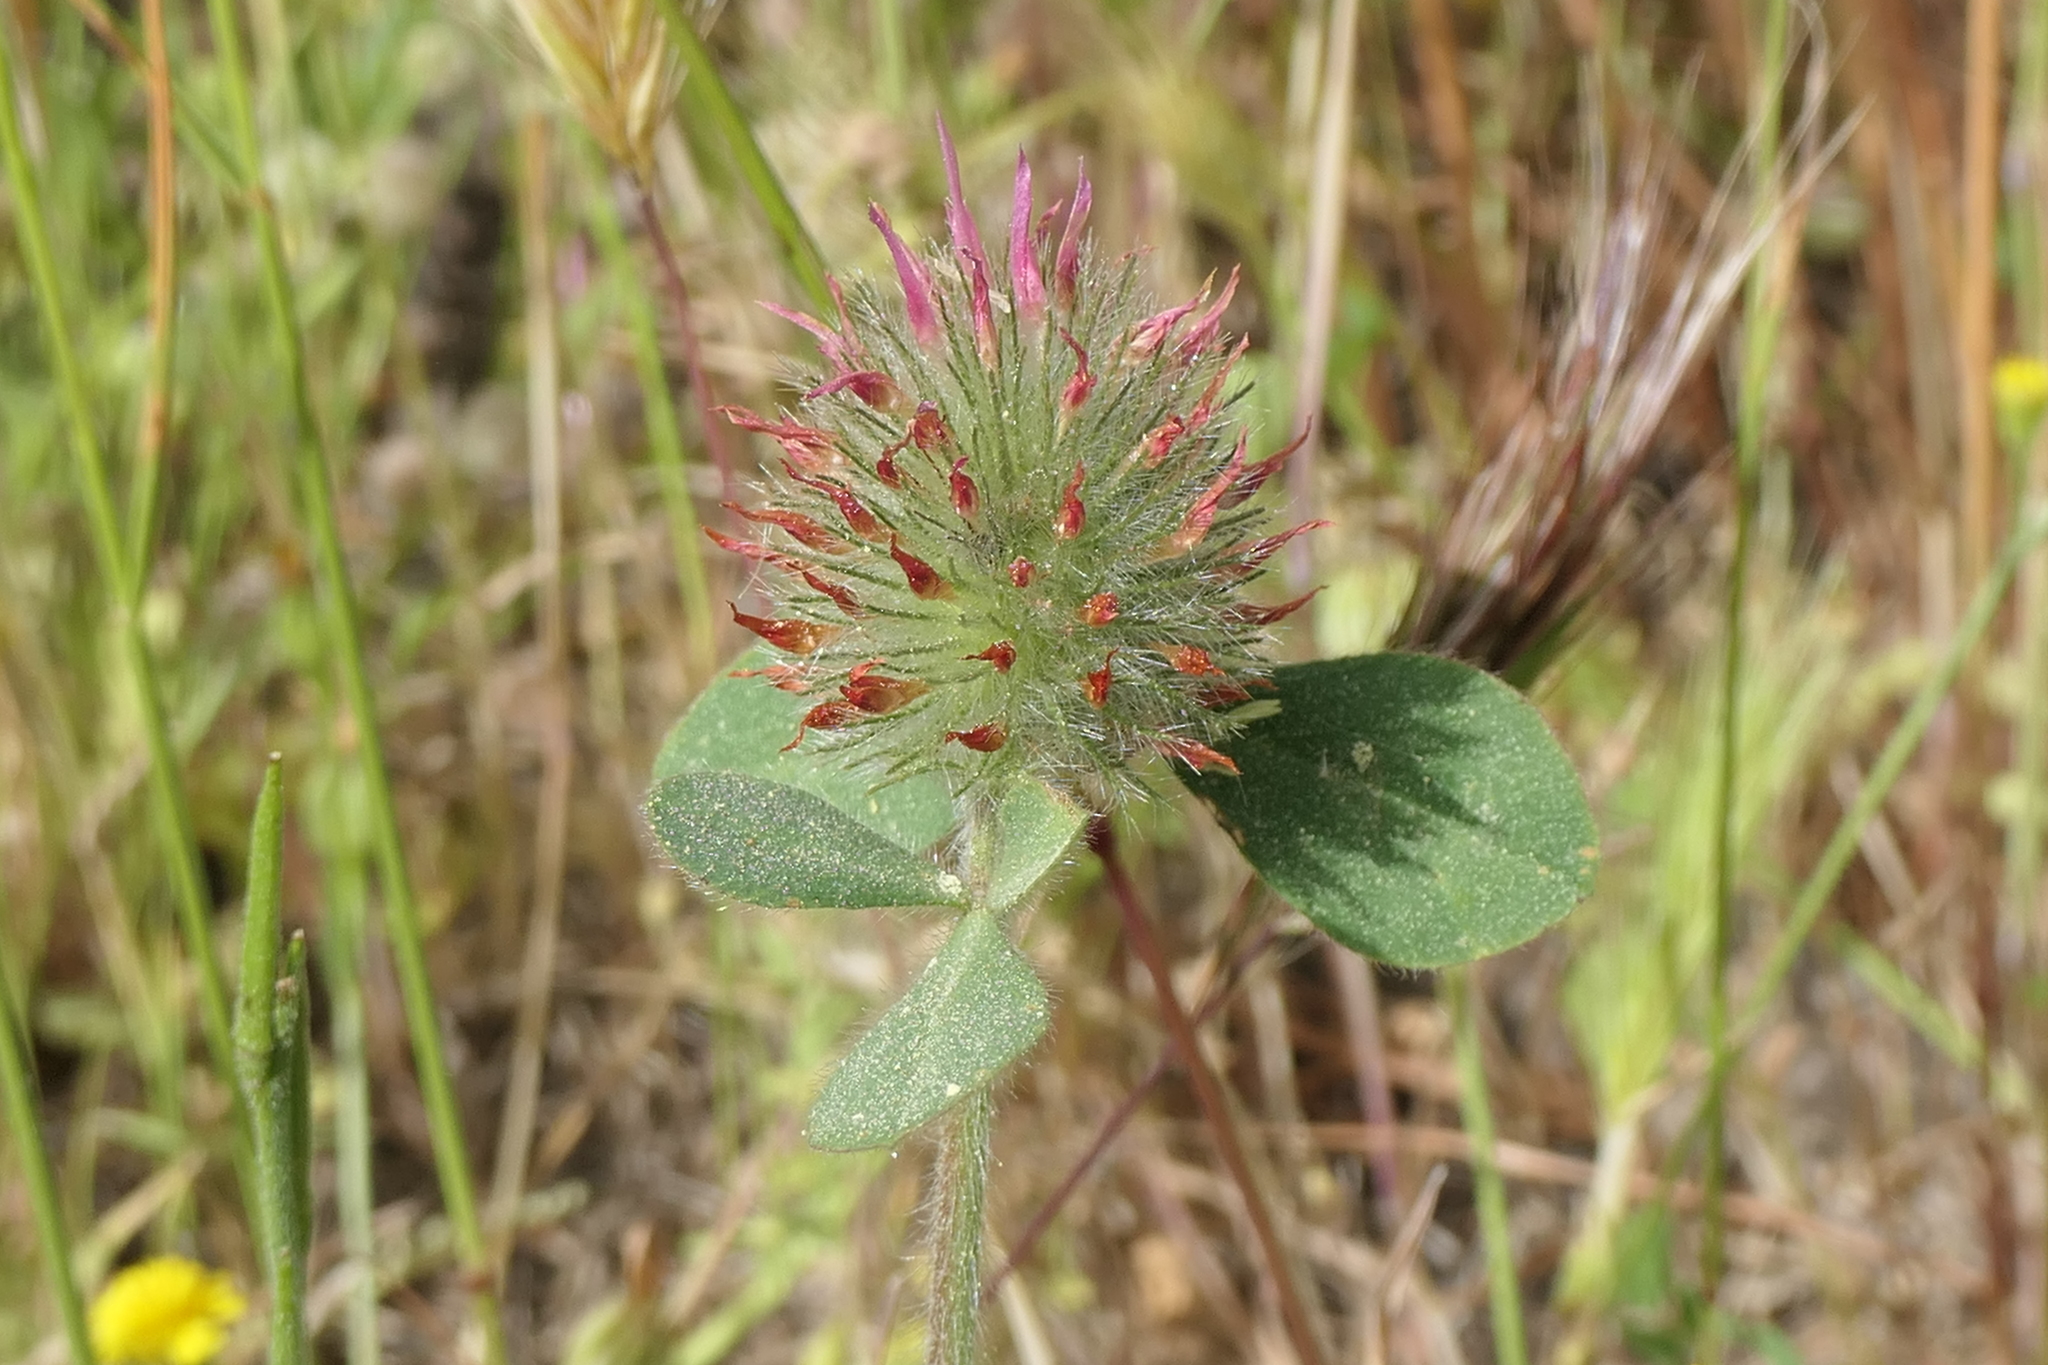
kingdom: Plantae
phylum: Tracheophyta
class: Magnoliopsida
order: Fabales
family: Fabaceae
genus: Trifolium
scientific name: Trifolium hirtum
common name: Rose clover
